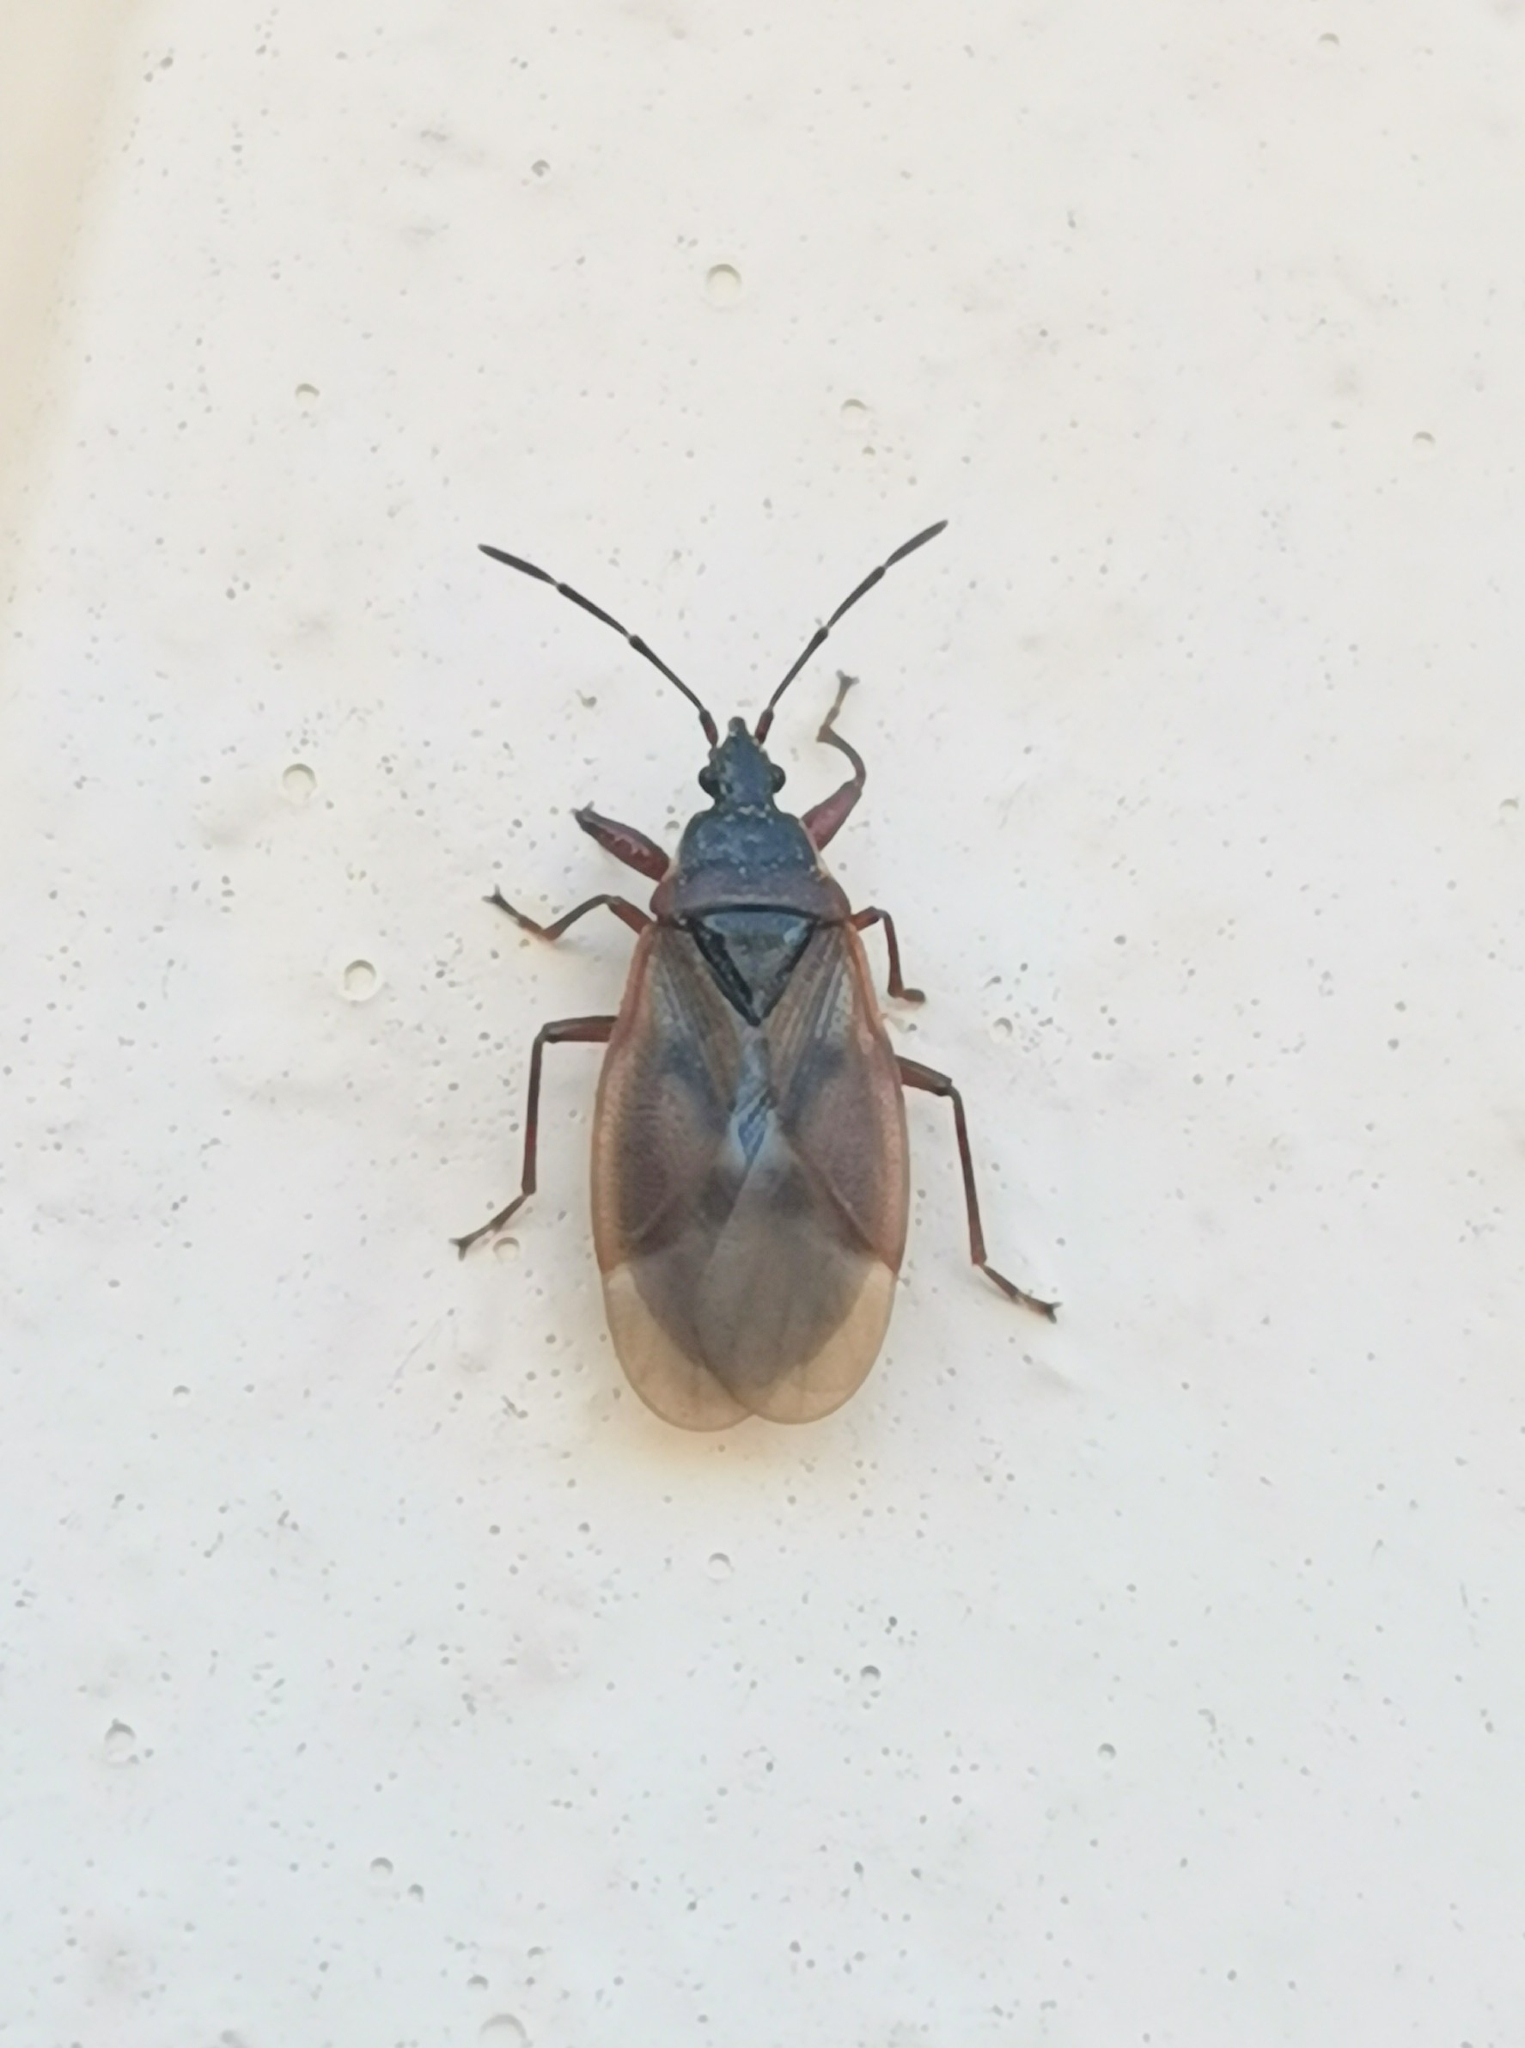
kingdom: Animalia
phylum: Arthropoda
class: Insecta
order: Hemiptera
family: Rhyparochromidae
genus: Gastrodes
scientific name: Gastrodes abietum
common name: Spruce cone bug
